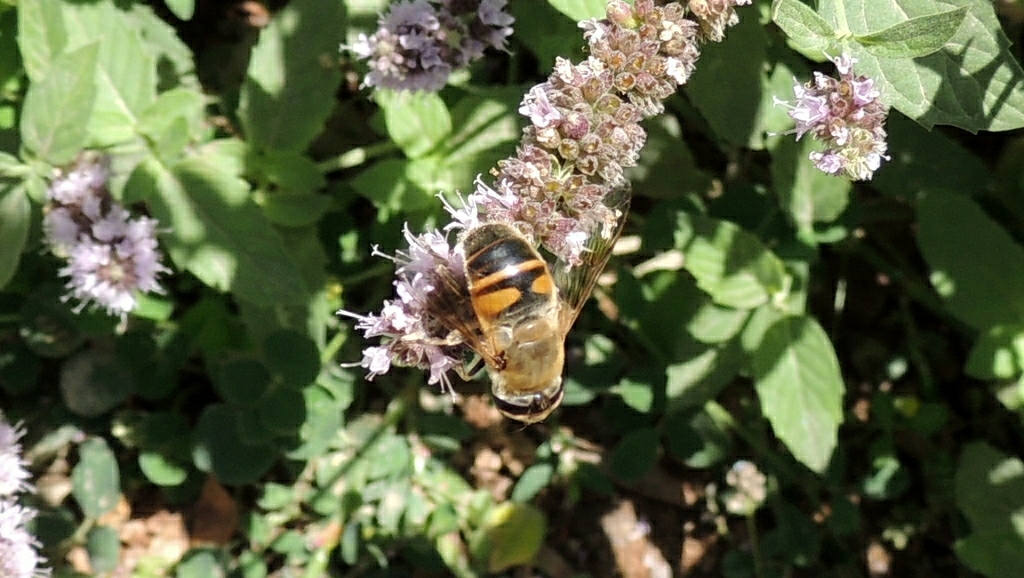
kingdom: Animalia
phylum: Arthropoda
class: Insecta
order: Diptera
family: Syrphidae
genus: Eristalis
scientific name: Eristalis tenax
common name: Drone fly
